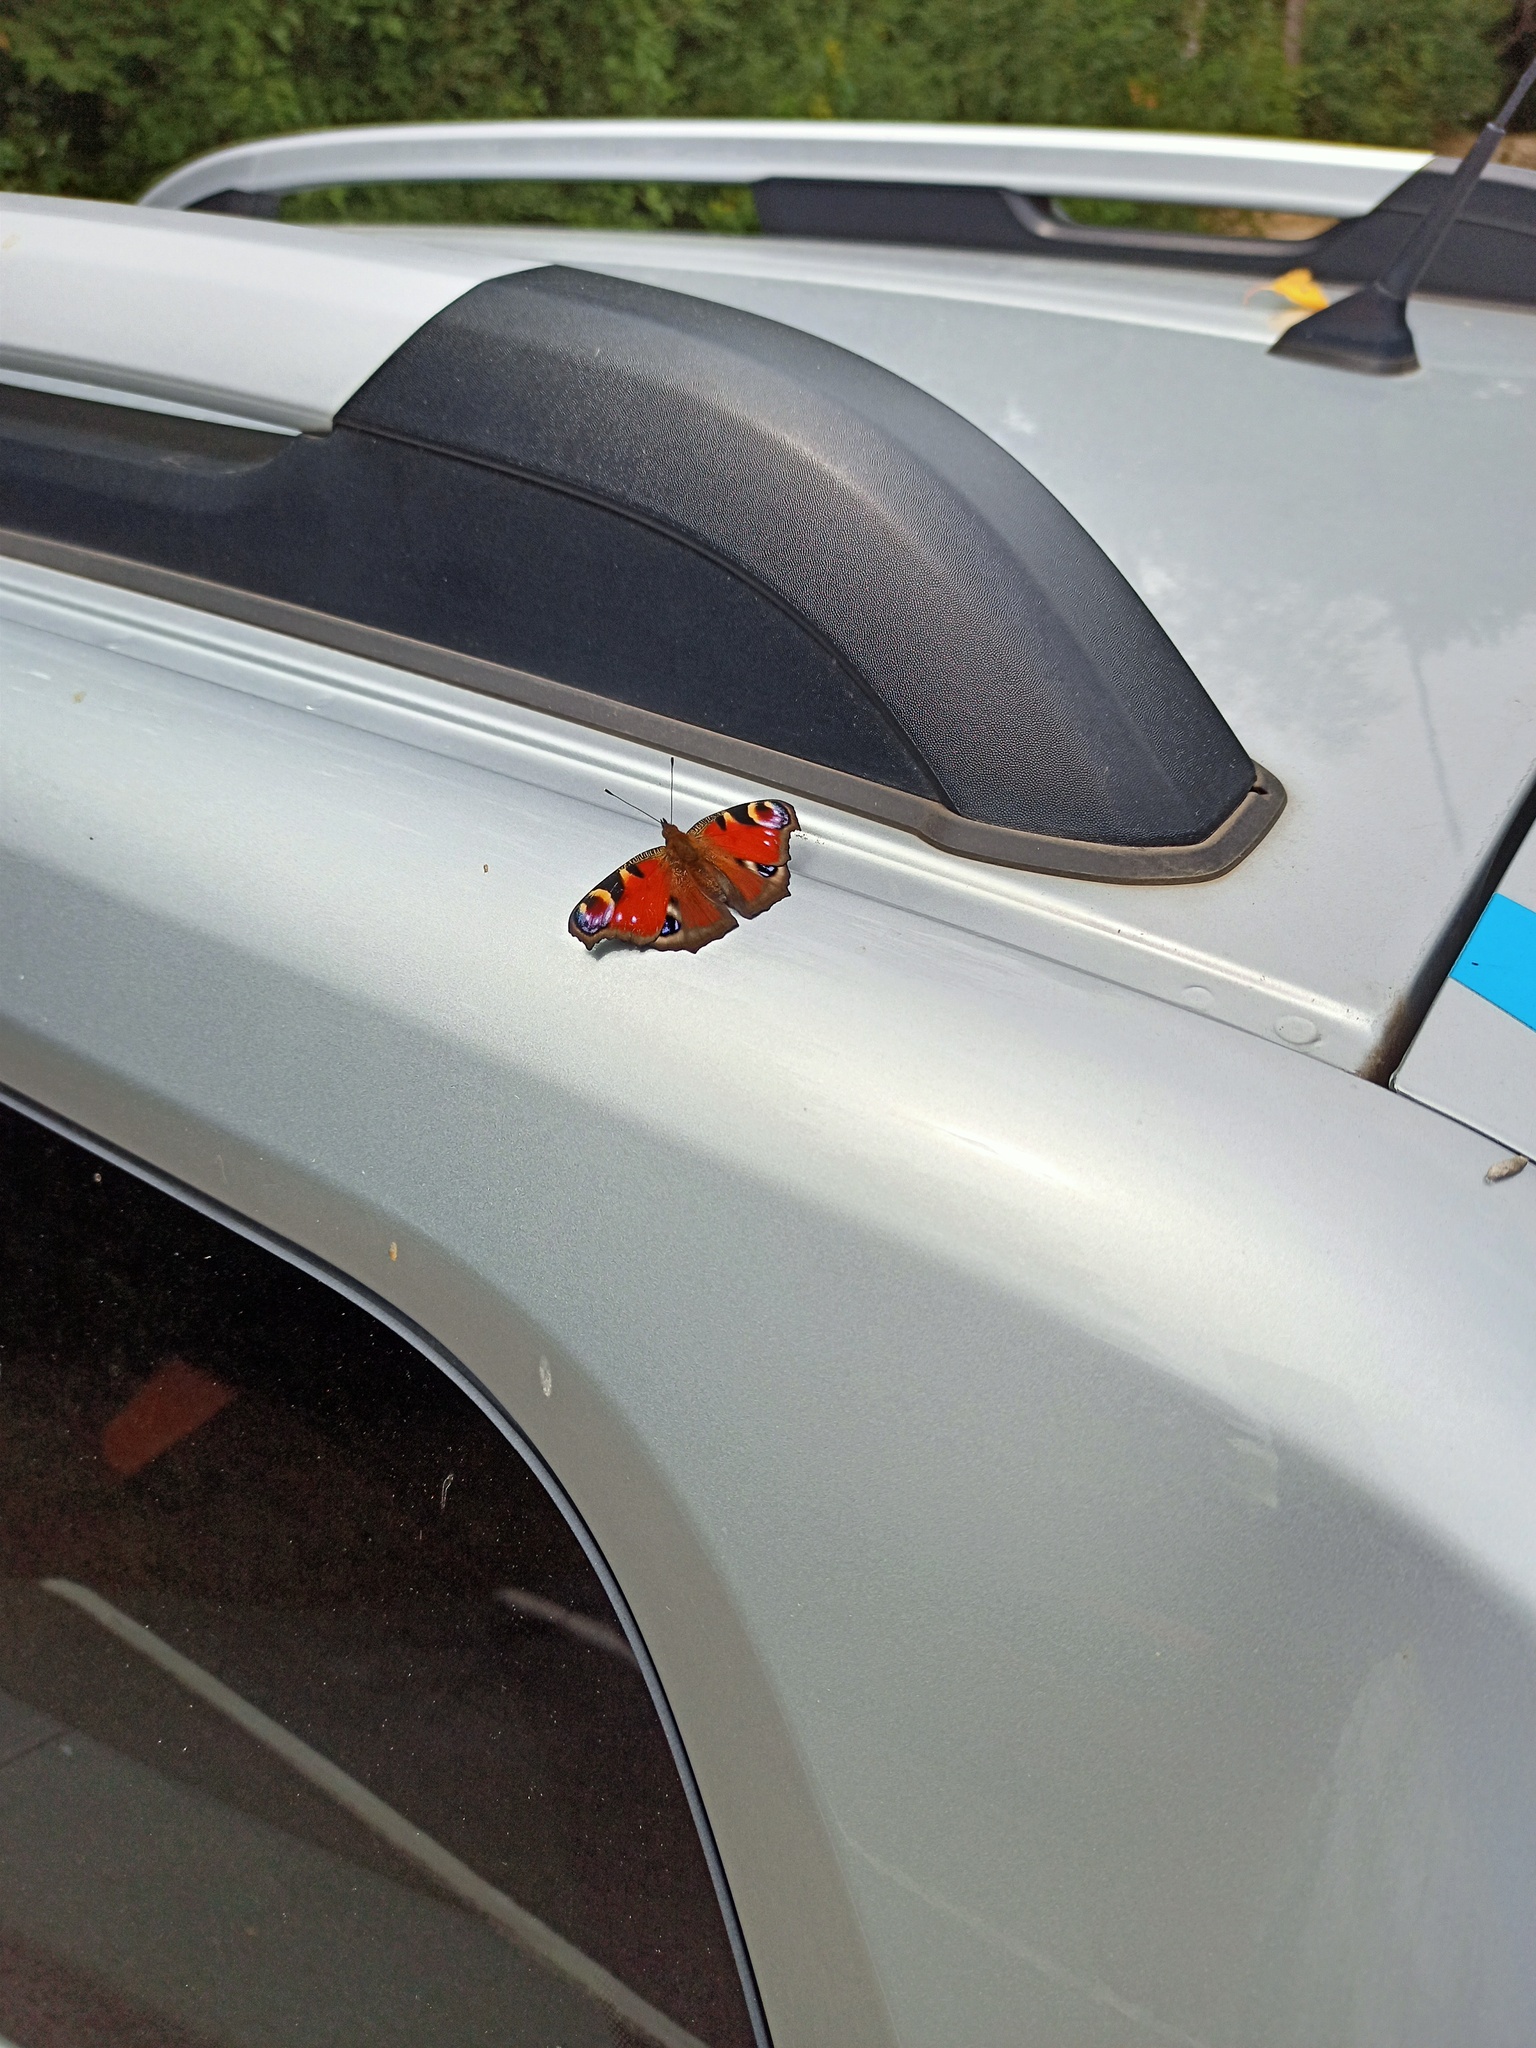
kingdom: Animalia
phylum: Arthropoda
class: Insecta
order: Lepidoptera
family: Nymphalidae
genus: Aglais
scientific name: Aglais io
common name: Peacock
